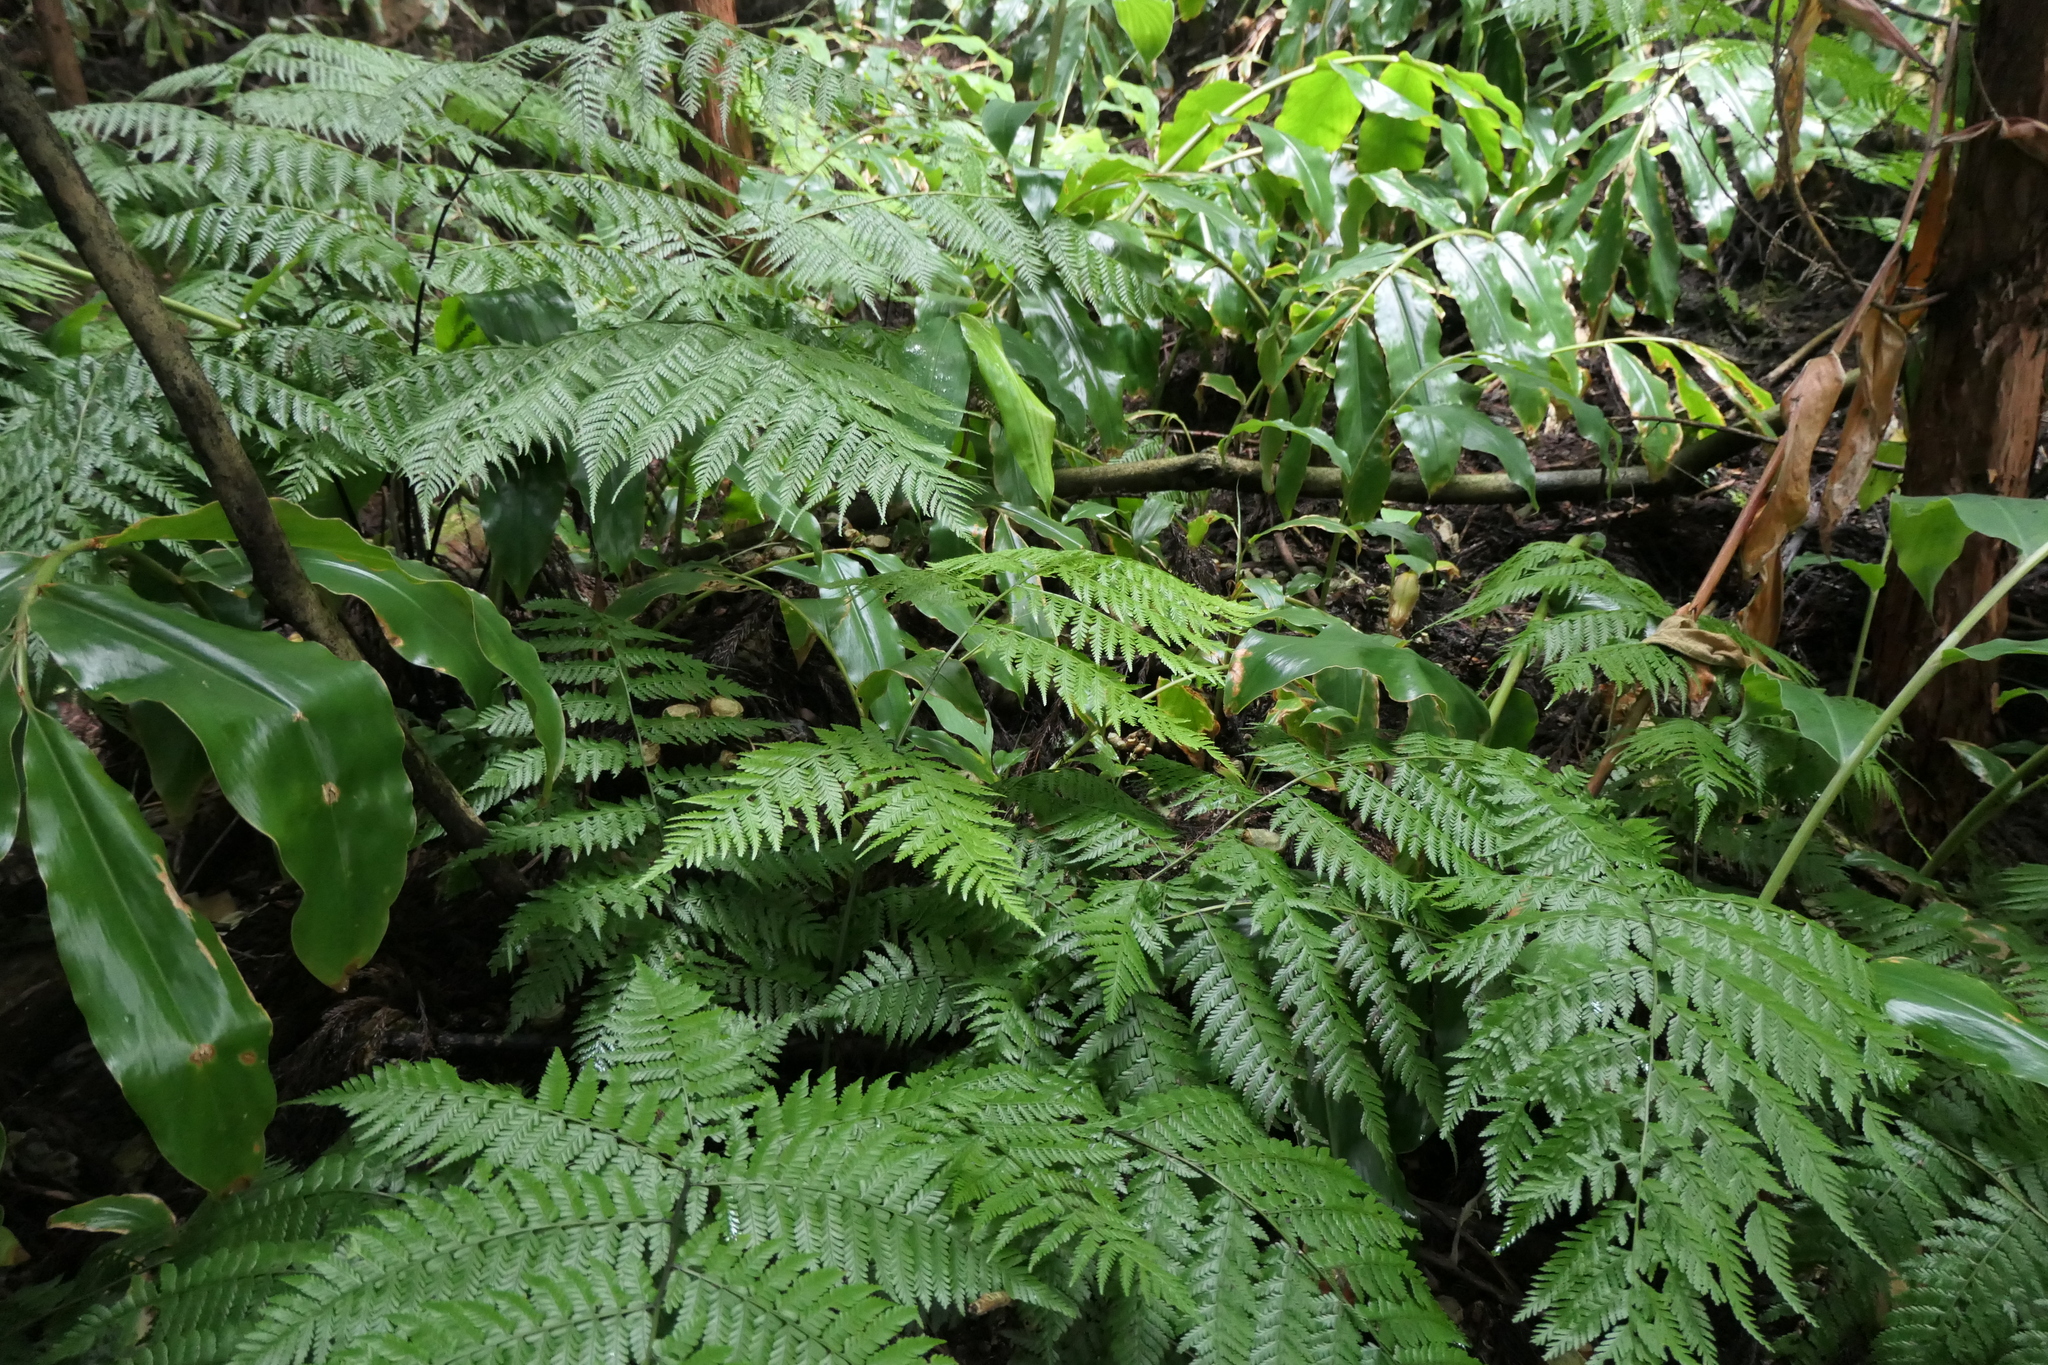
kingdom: Plantae
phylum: Tracheophyta
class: Polypodiopsida
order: Polypodiales
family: Athyriaceae
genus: Diplazium
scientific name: Diplazium caudatum
